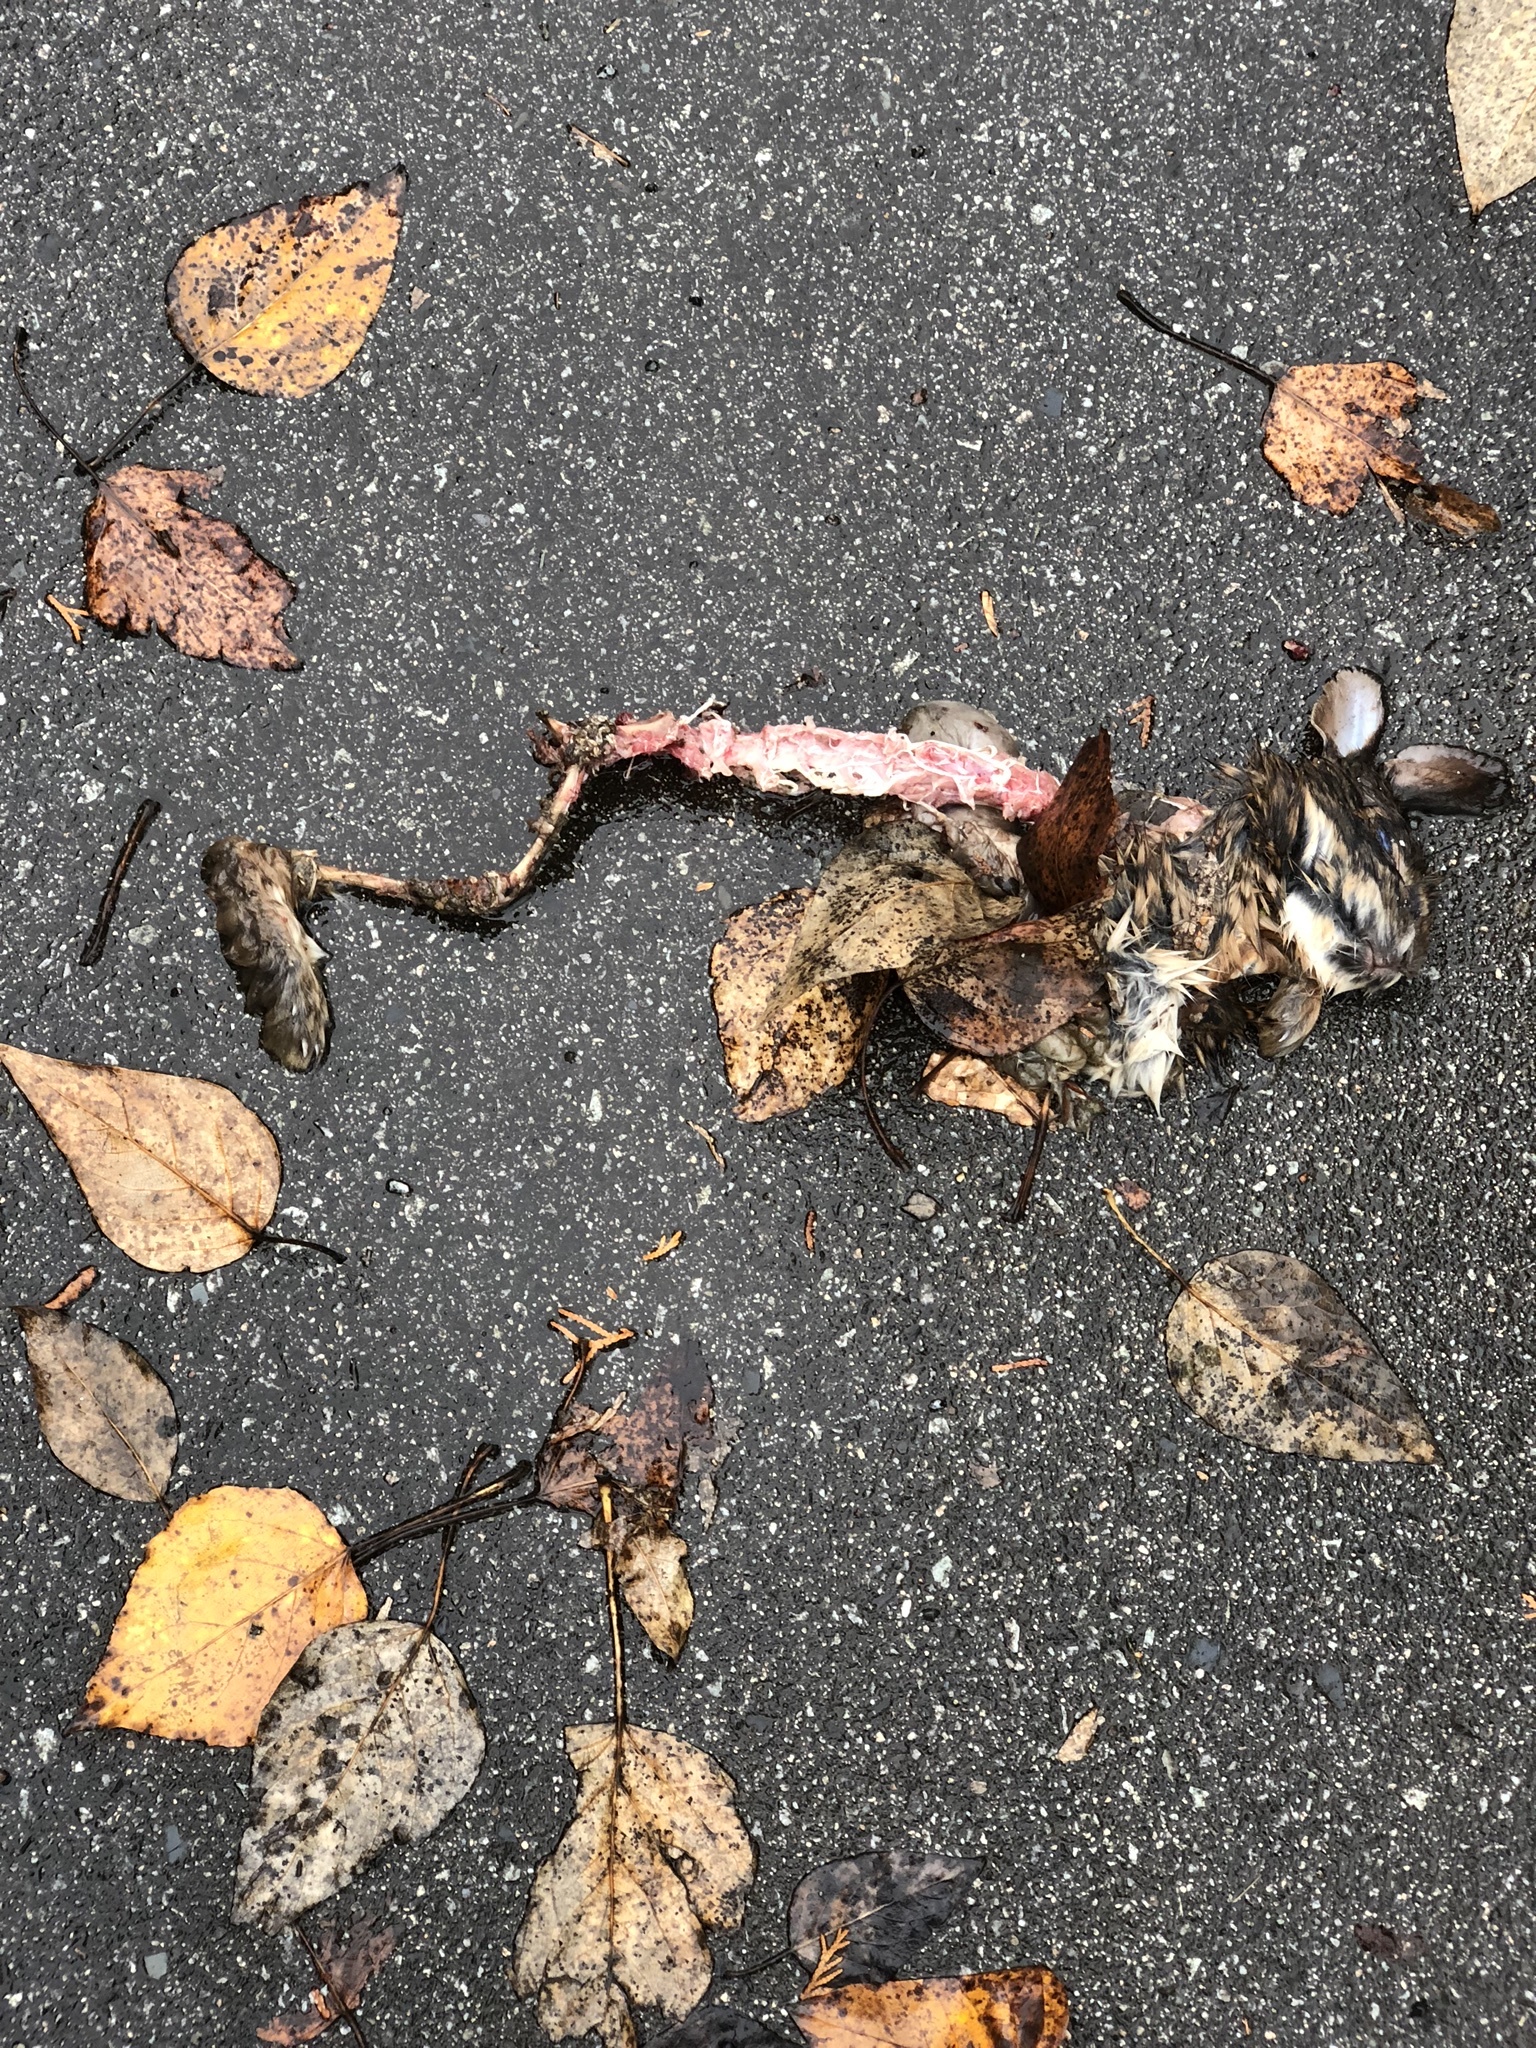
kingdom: Animalia
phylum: Chordata
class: Mammalia
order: Lagomorpha
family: Leporidae
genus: Sylvilagus
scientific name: Sylvilagus floridanus
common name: Eastern cottontail
